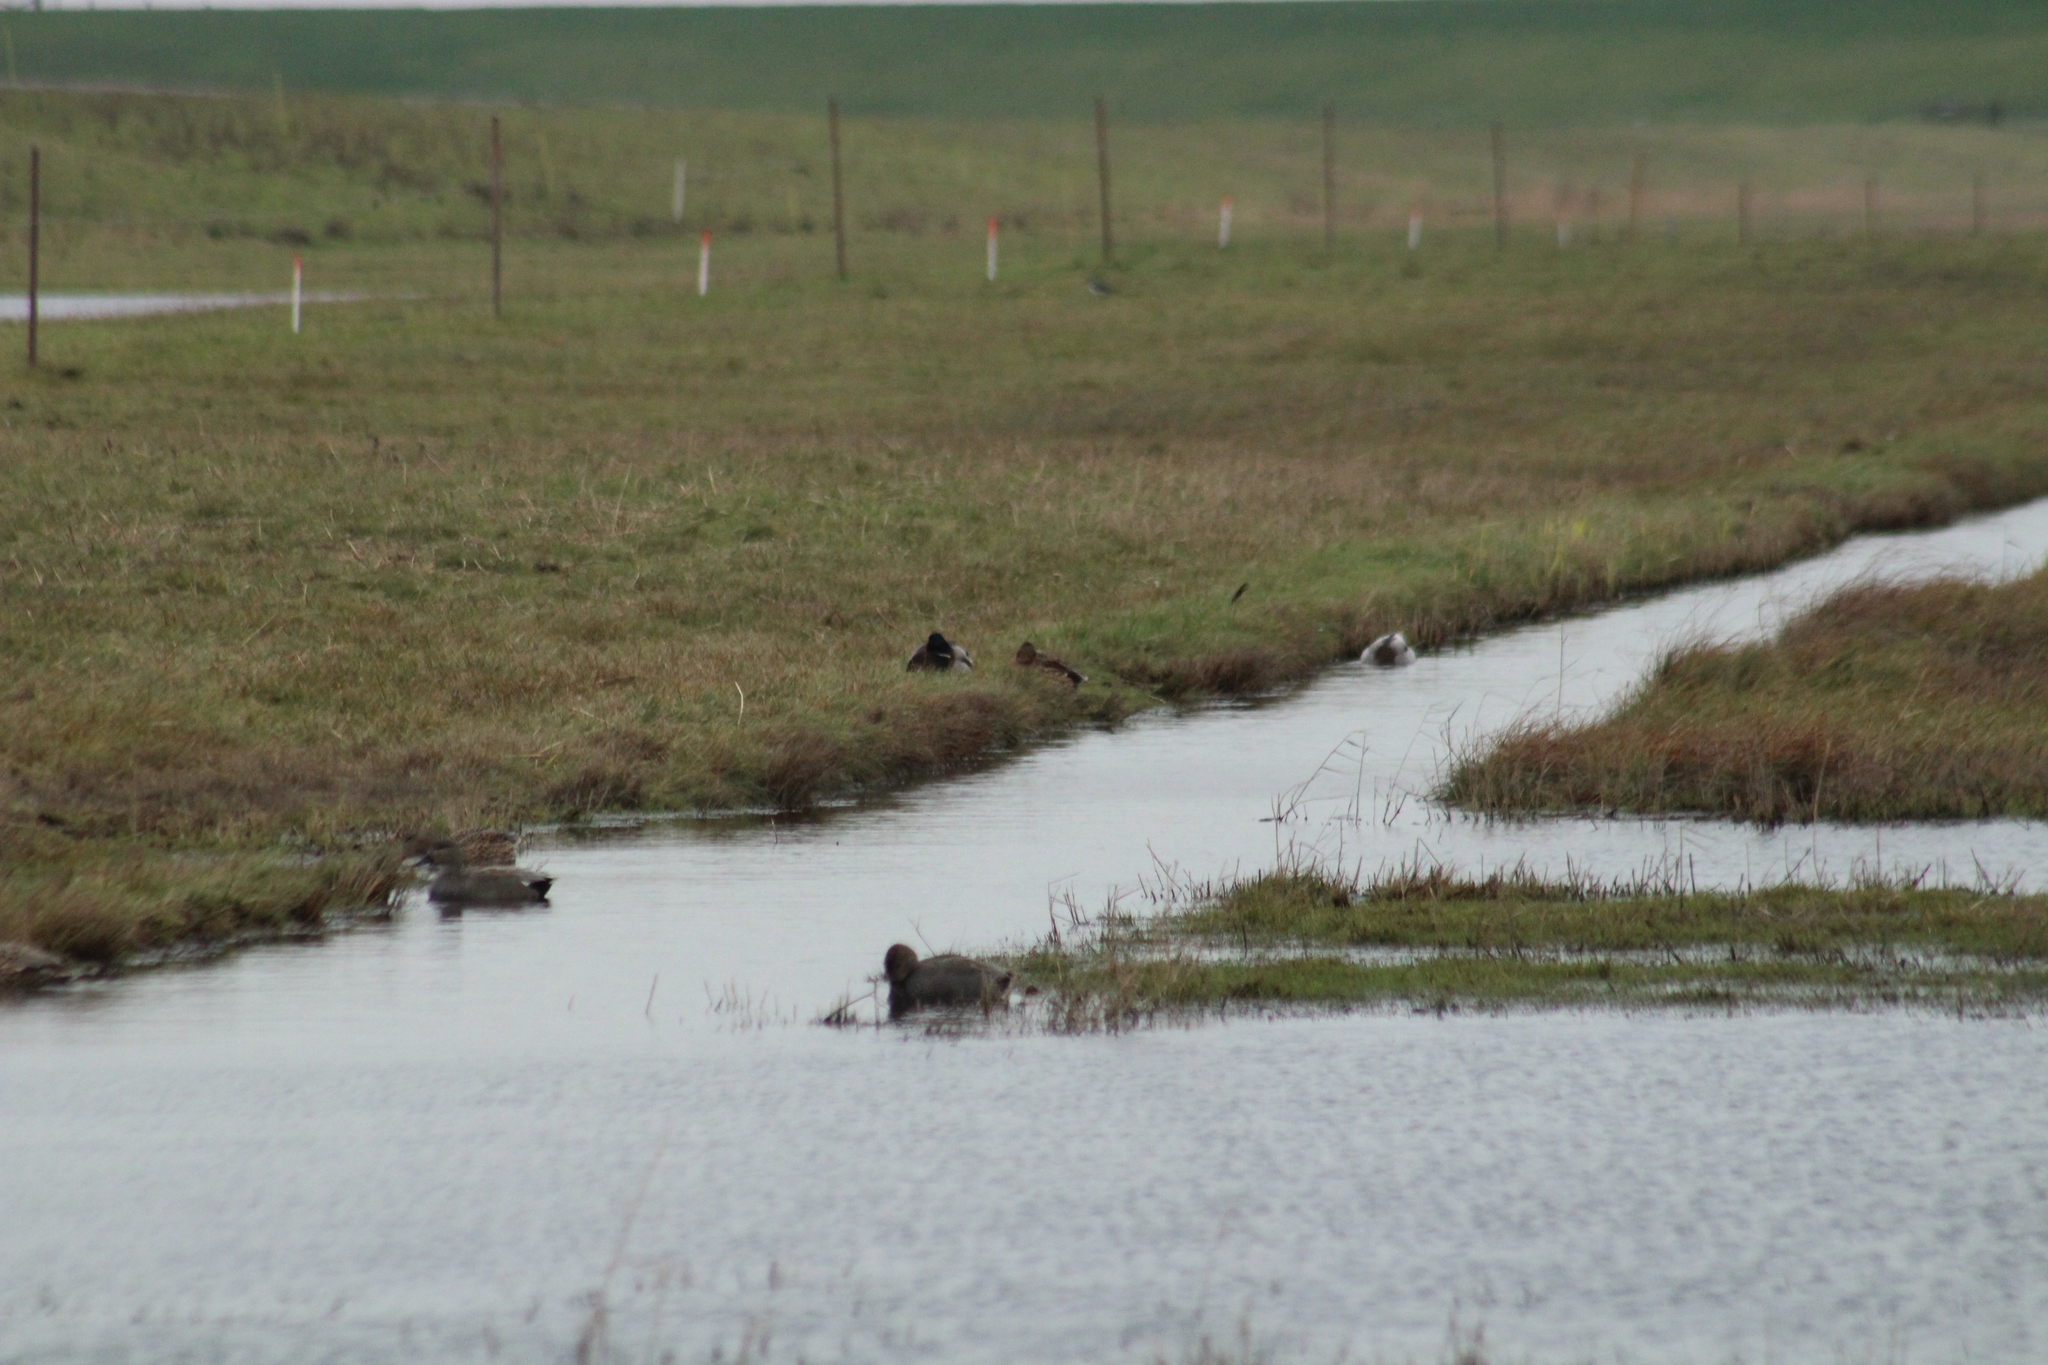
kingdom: Animalia
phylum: Chordata
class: Aves
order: Anseriformes
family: Anatidae
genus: Anas
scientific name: Anas platyrhynchos
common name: Mallard
